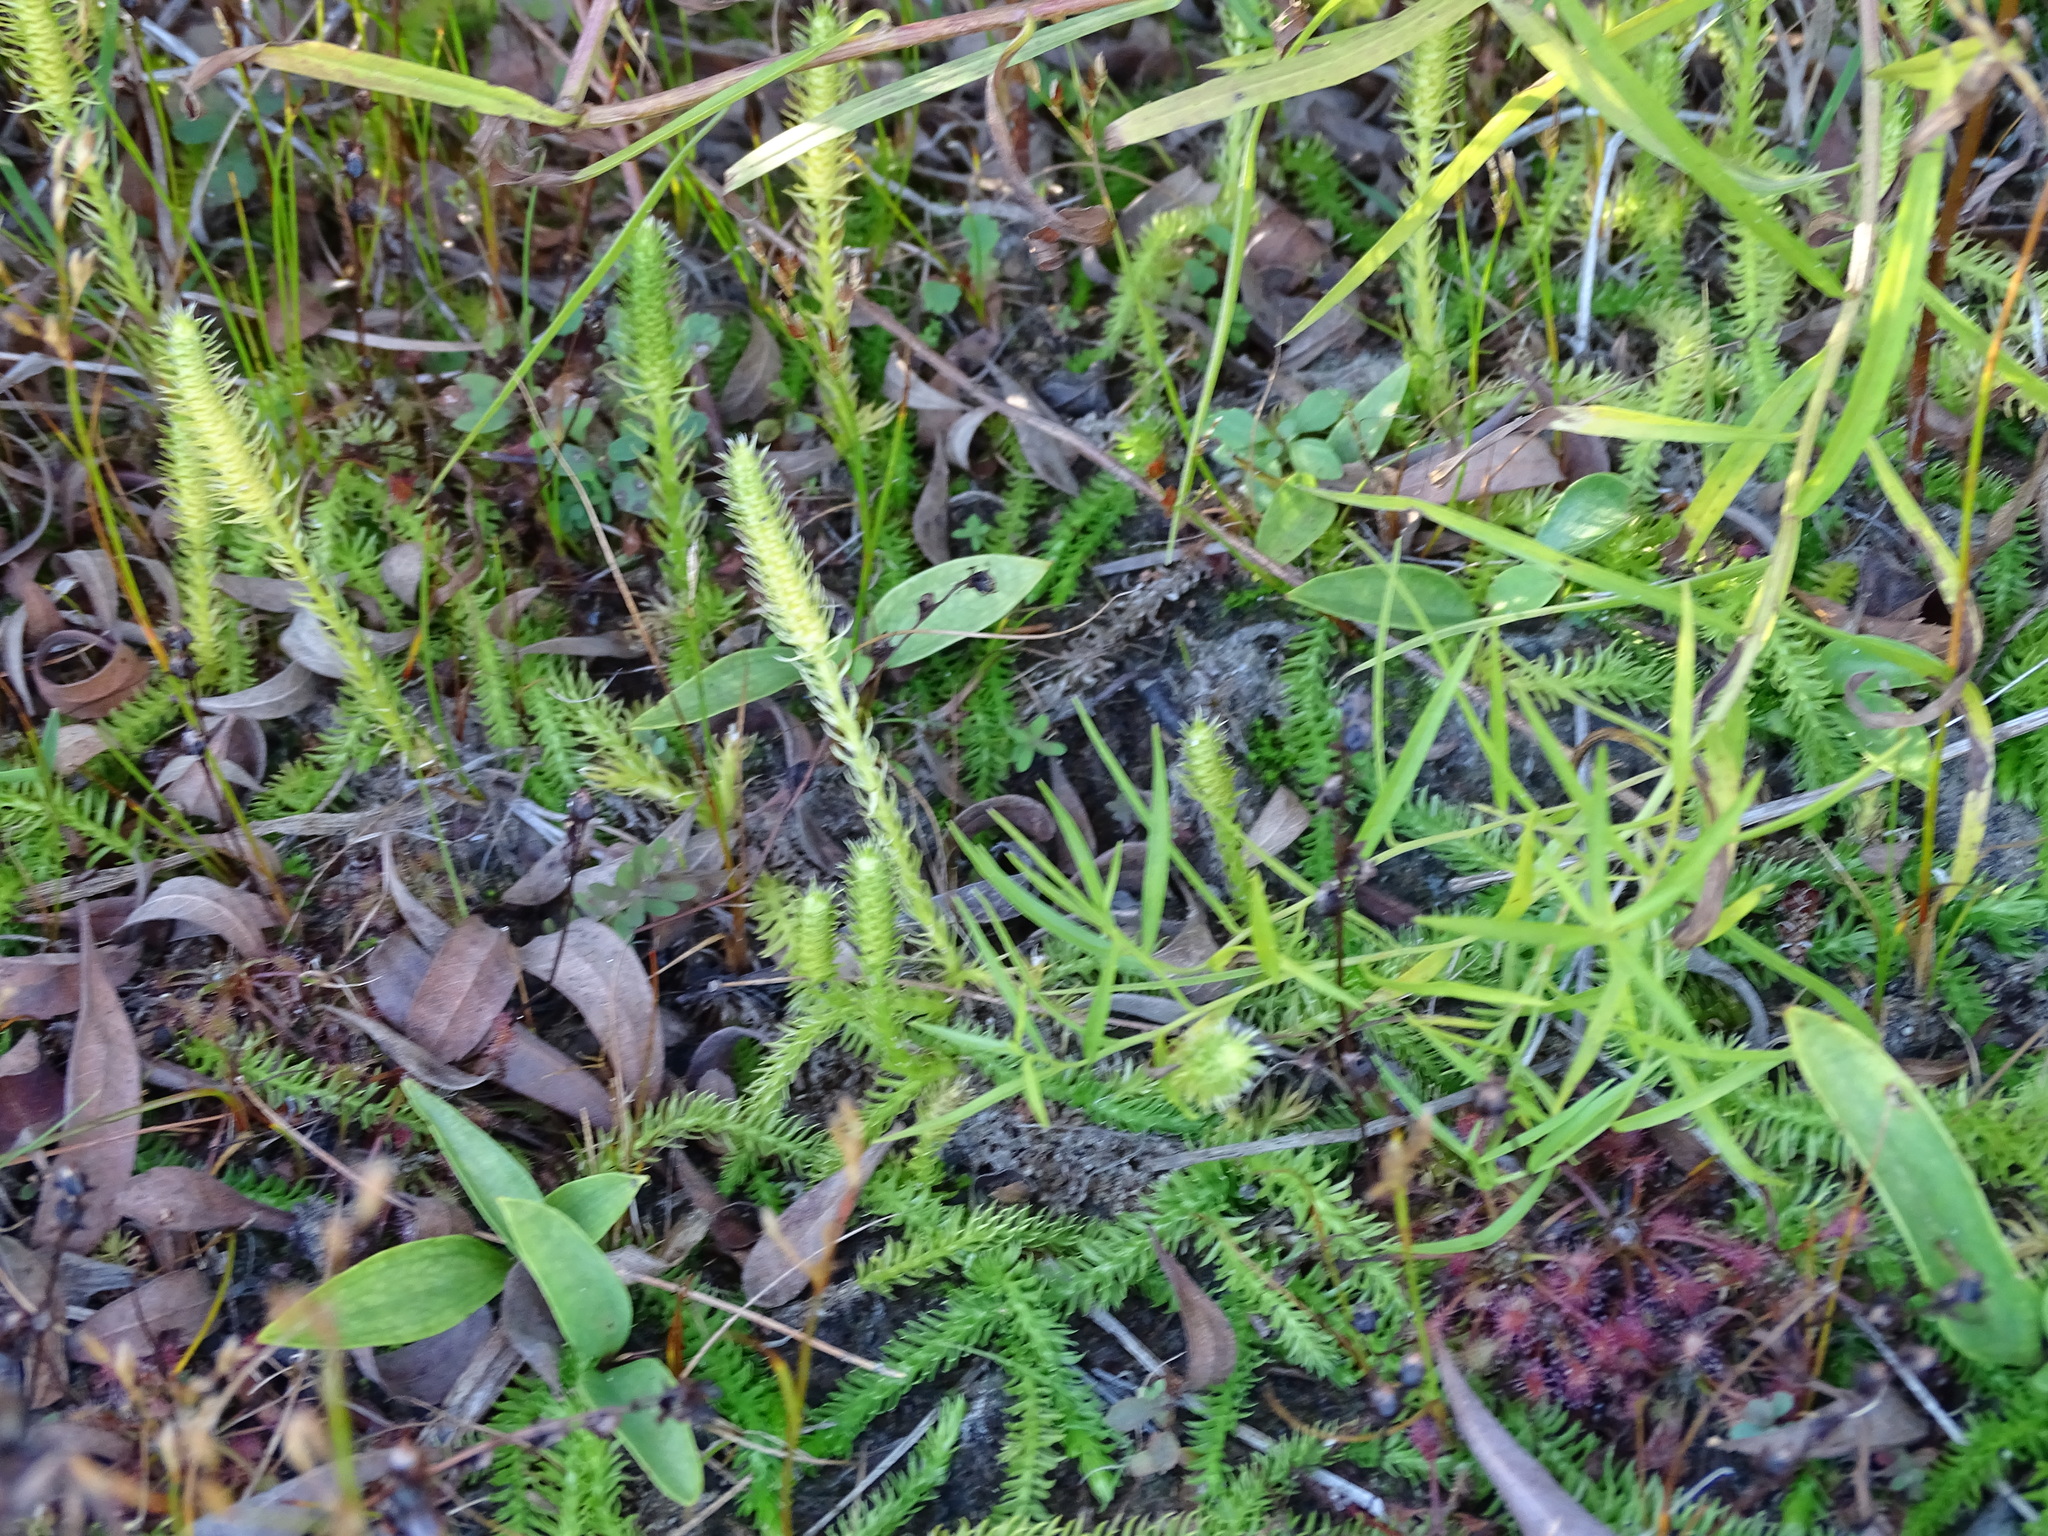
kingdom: Plantae
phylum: Tracheophyta
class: Lycopodiopsida
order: Lycopodiales
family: Lycopodiaceae
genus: Lycopodiella
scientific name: Lycopodiella inundata
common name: Marsh clubmoss
